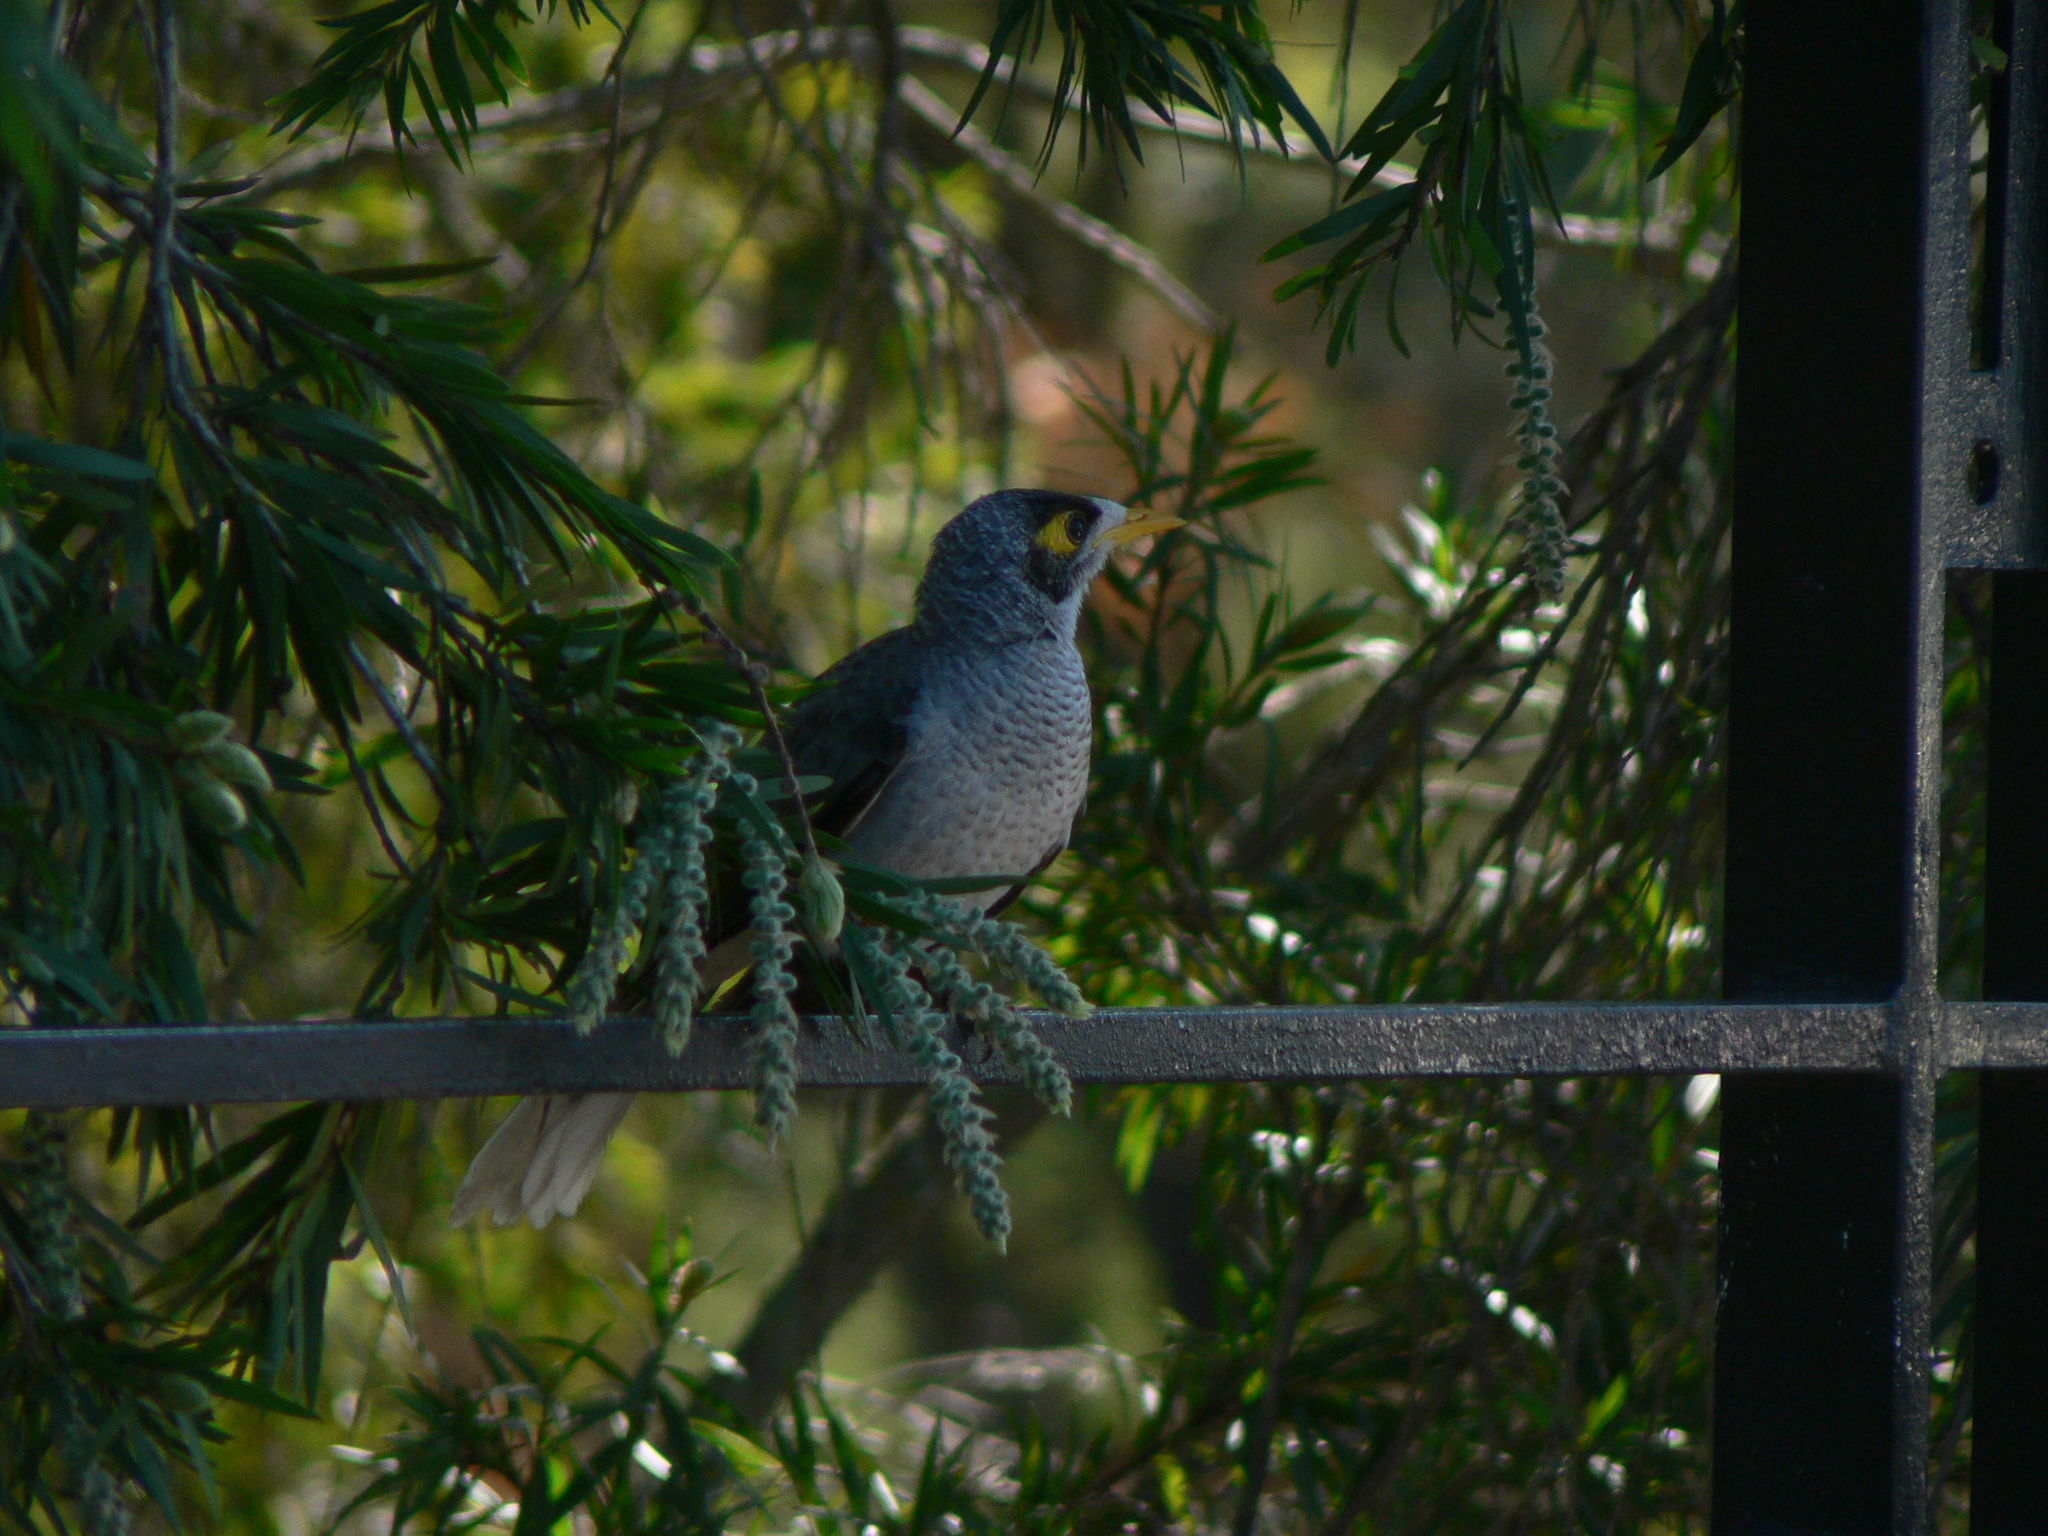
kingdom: Animalia
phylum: Chordata
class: Aves
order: Passeriformes
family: Meliphagidae
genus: Manorina
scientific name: Manorina melanocephala
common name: Noisy miner
